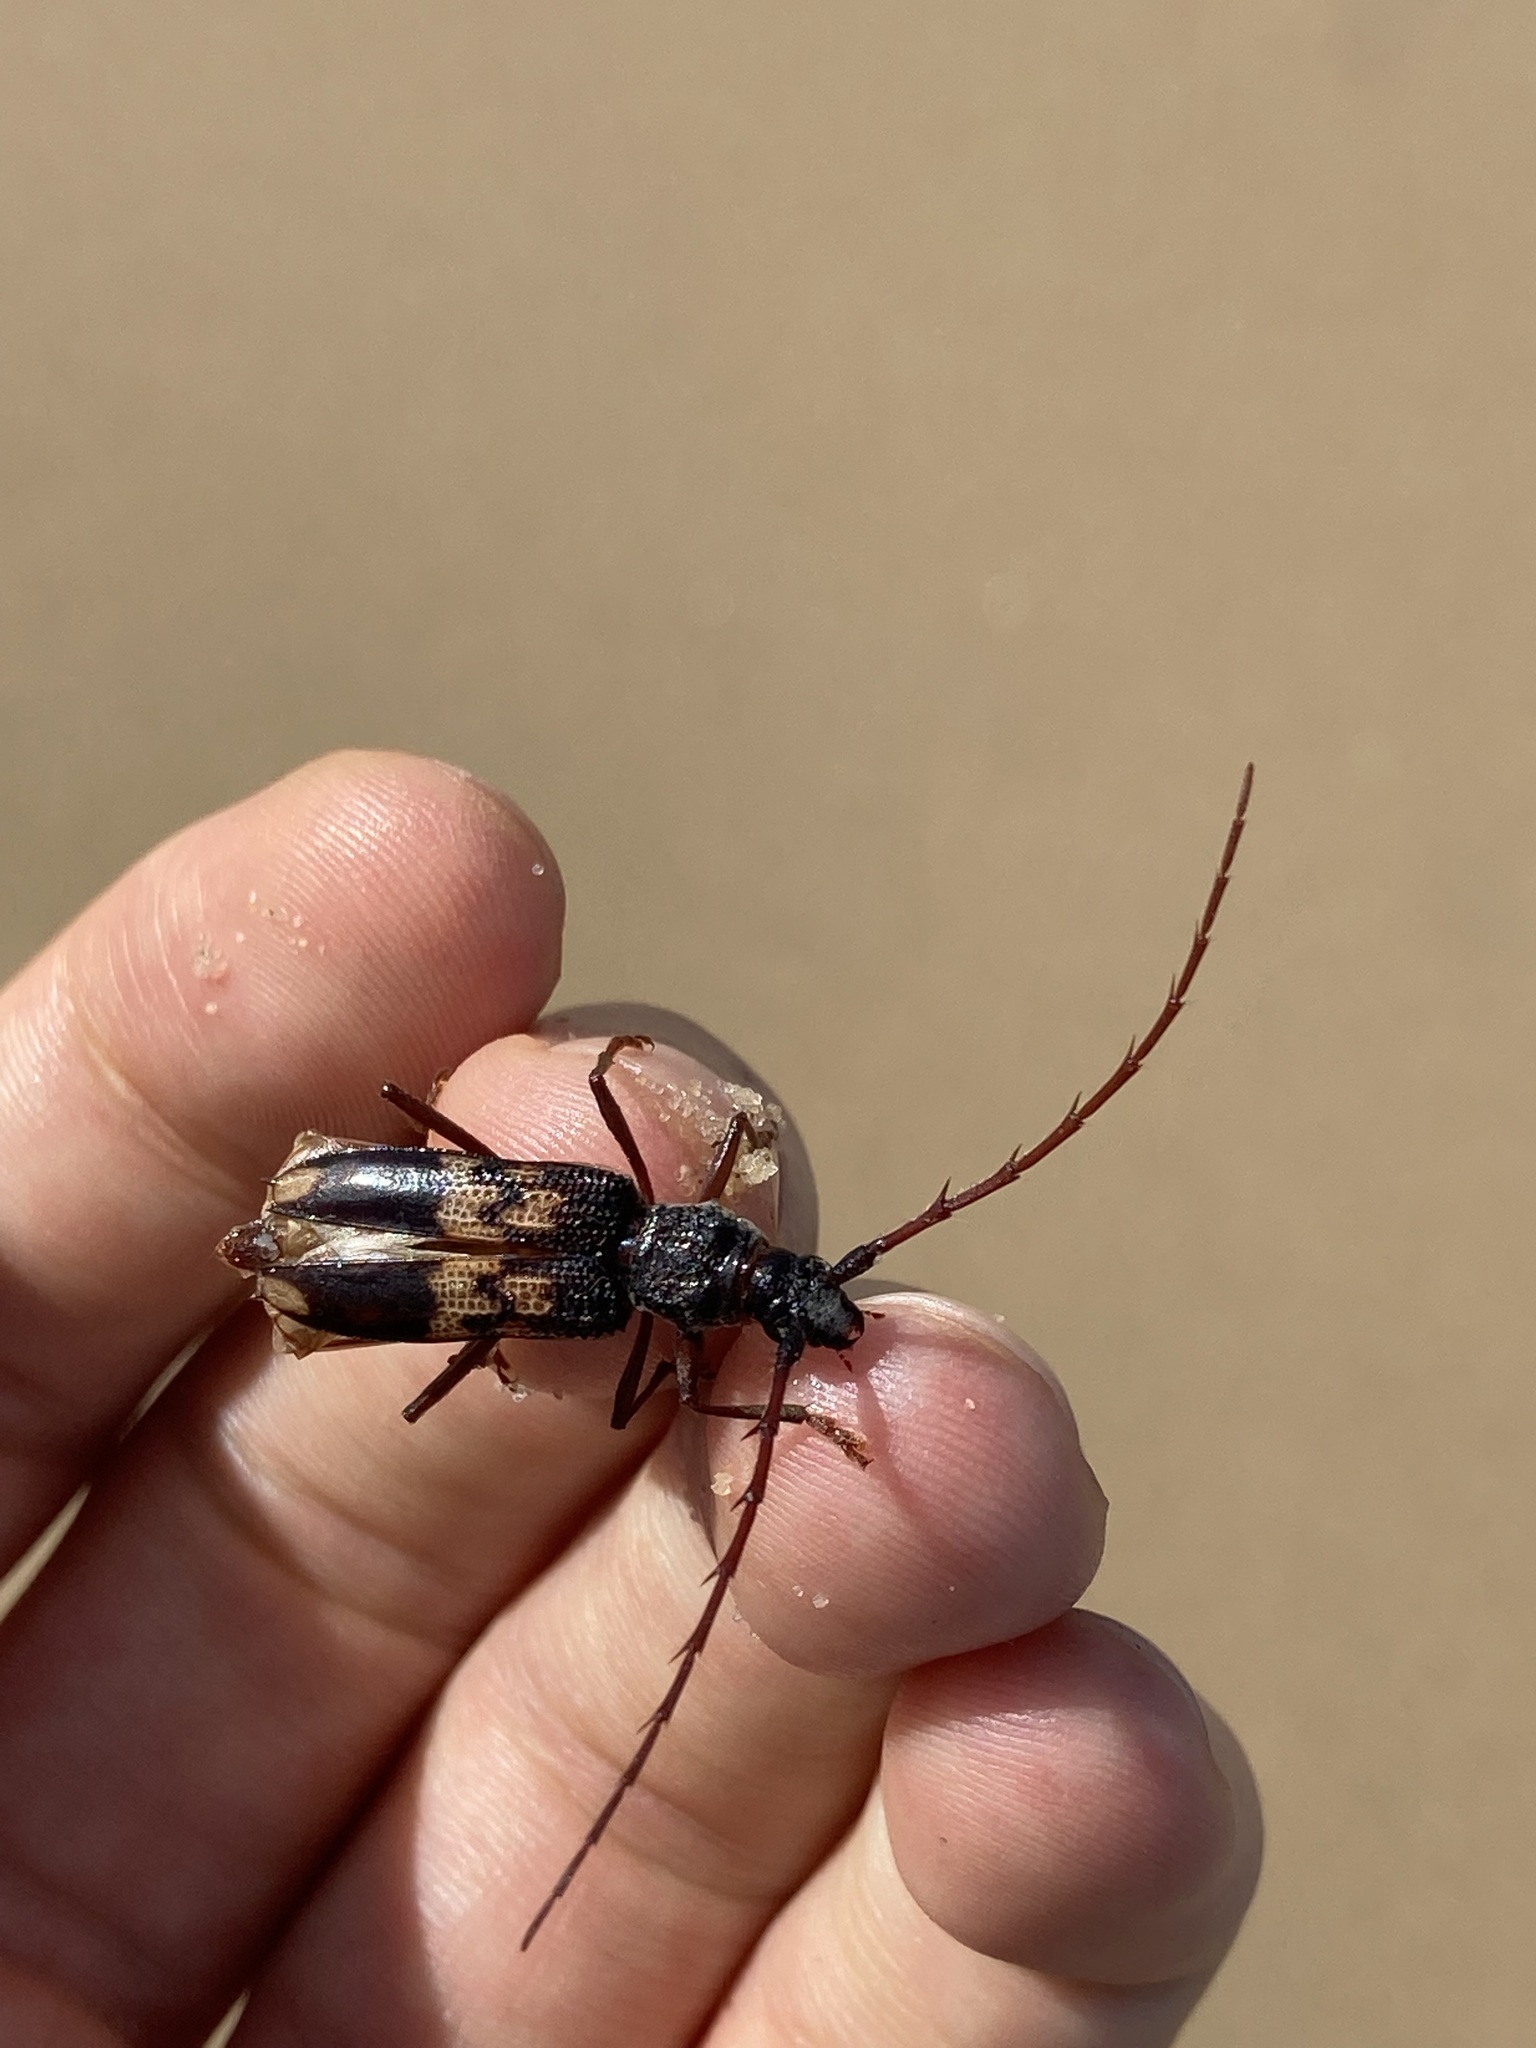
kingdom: Animalia
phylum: Arthropoda
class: Insecta
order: Coleoptera
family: Cerambycidae
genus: Phoracantha
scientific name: Phoracantha semipunctata
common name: Eucalyptus longhorn borer
